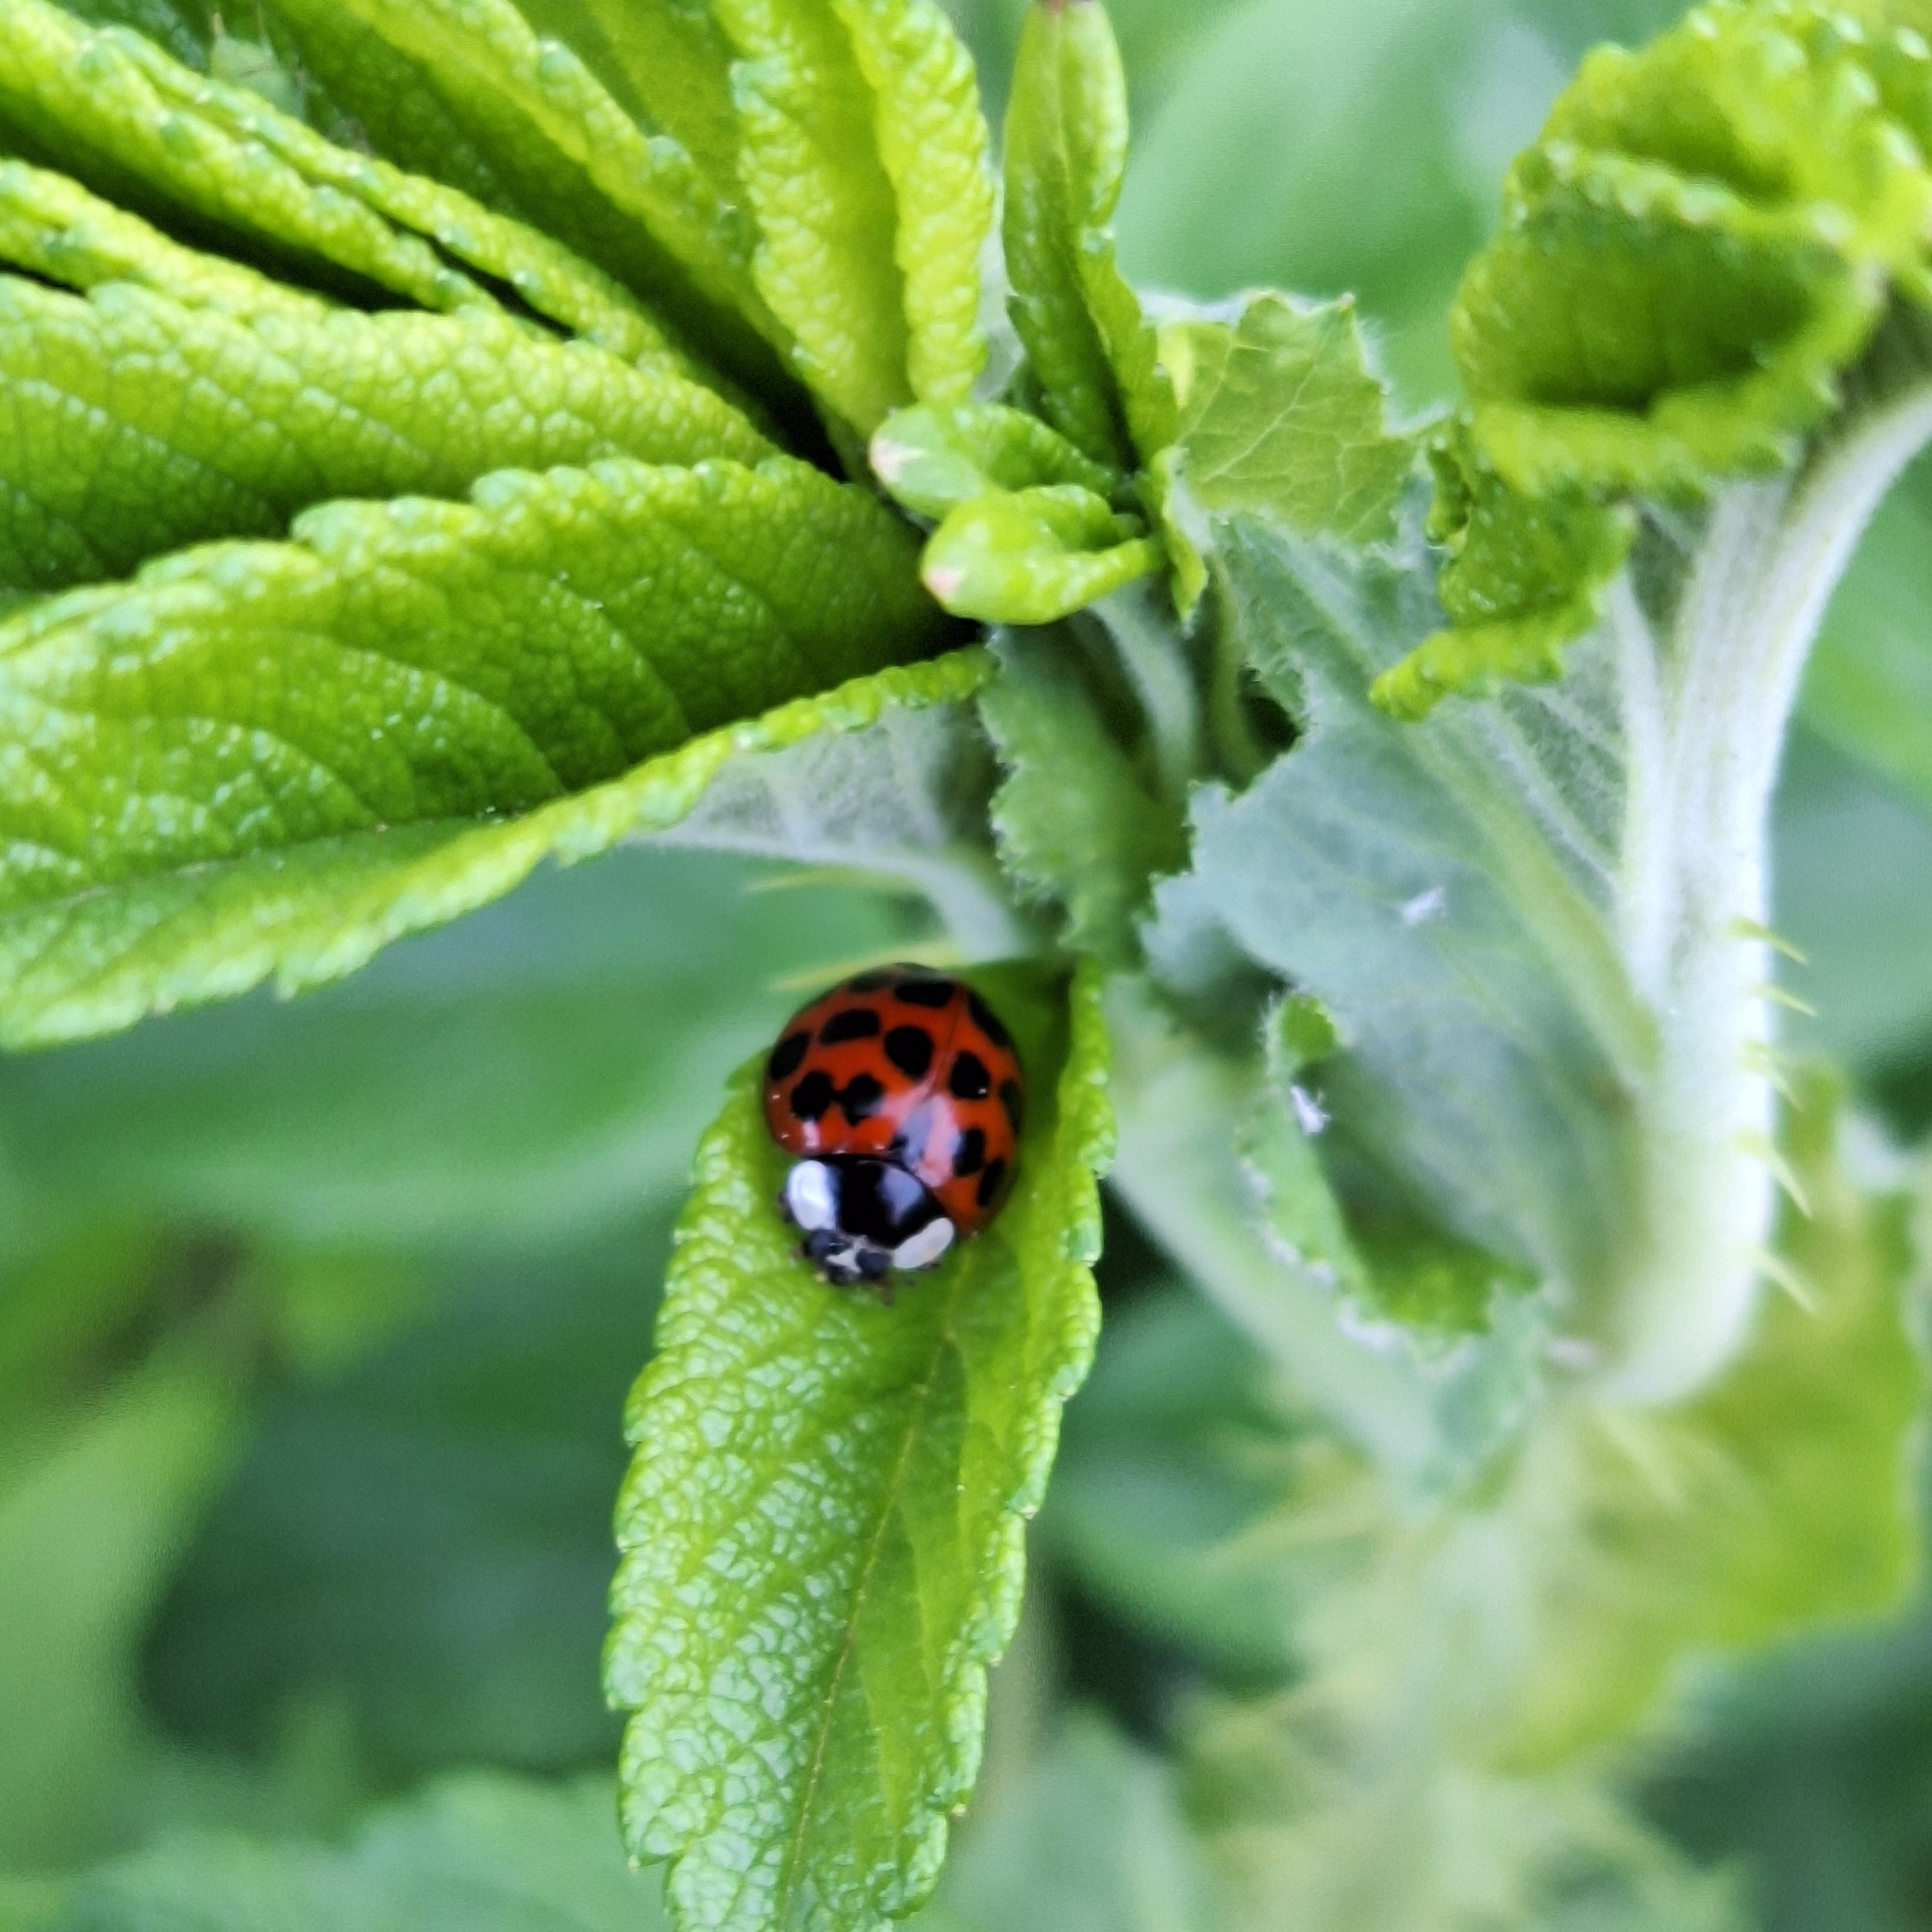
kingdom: Animalia
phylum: Arthropoda
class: Insecta
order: Coleoptera
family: Coccinellidae
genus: Harmonia
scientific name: Harmonia axyridis
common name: Harlequin ladybird
